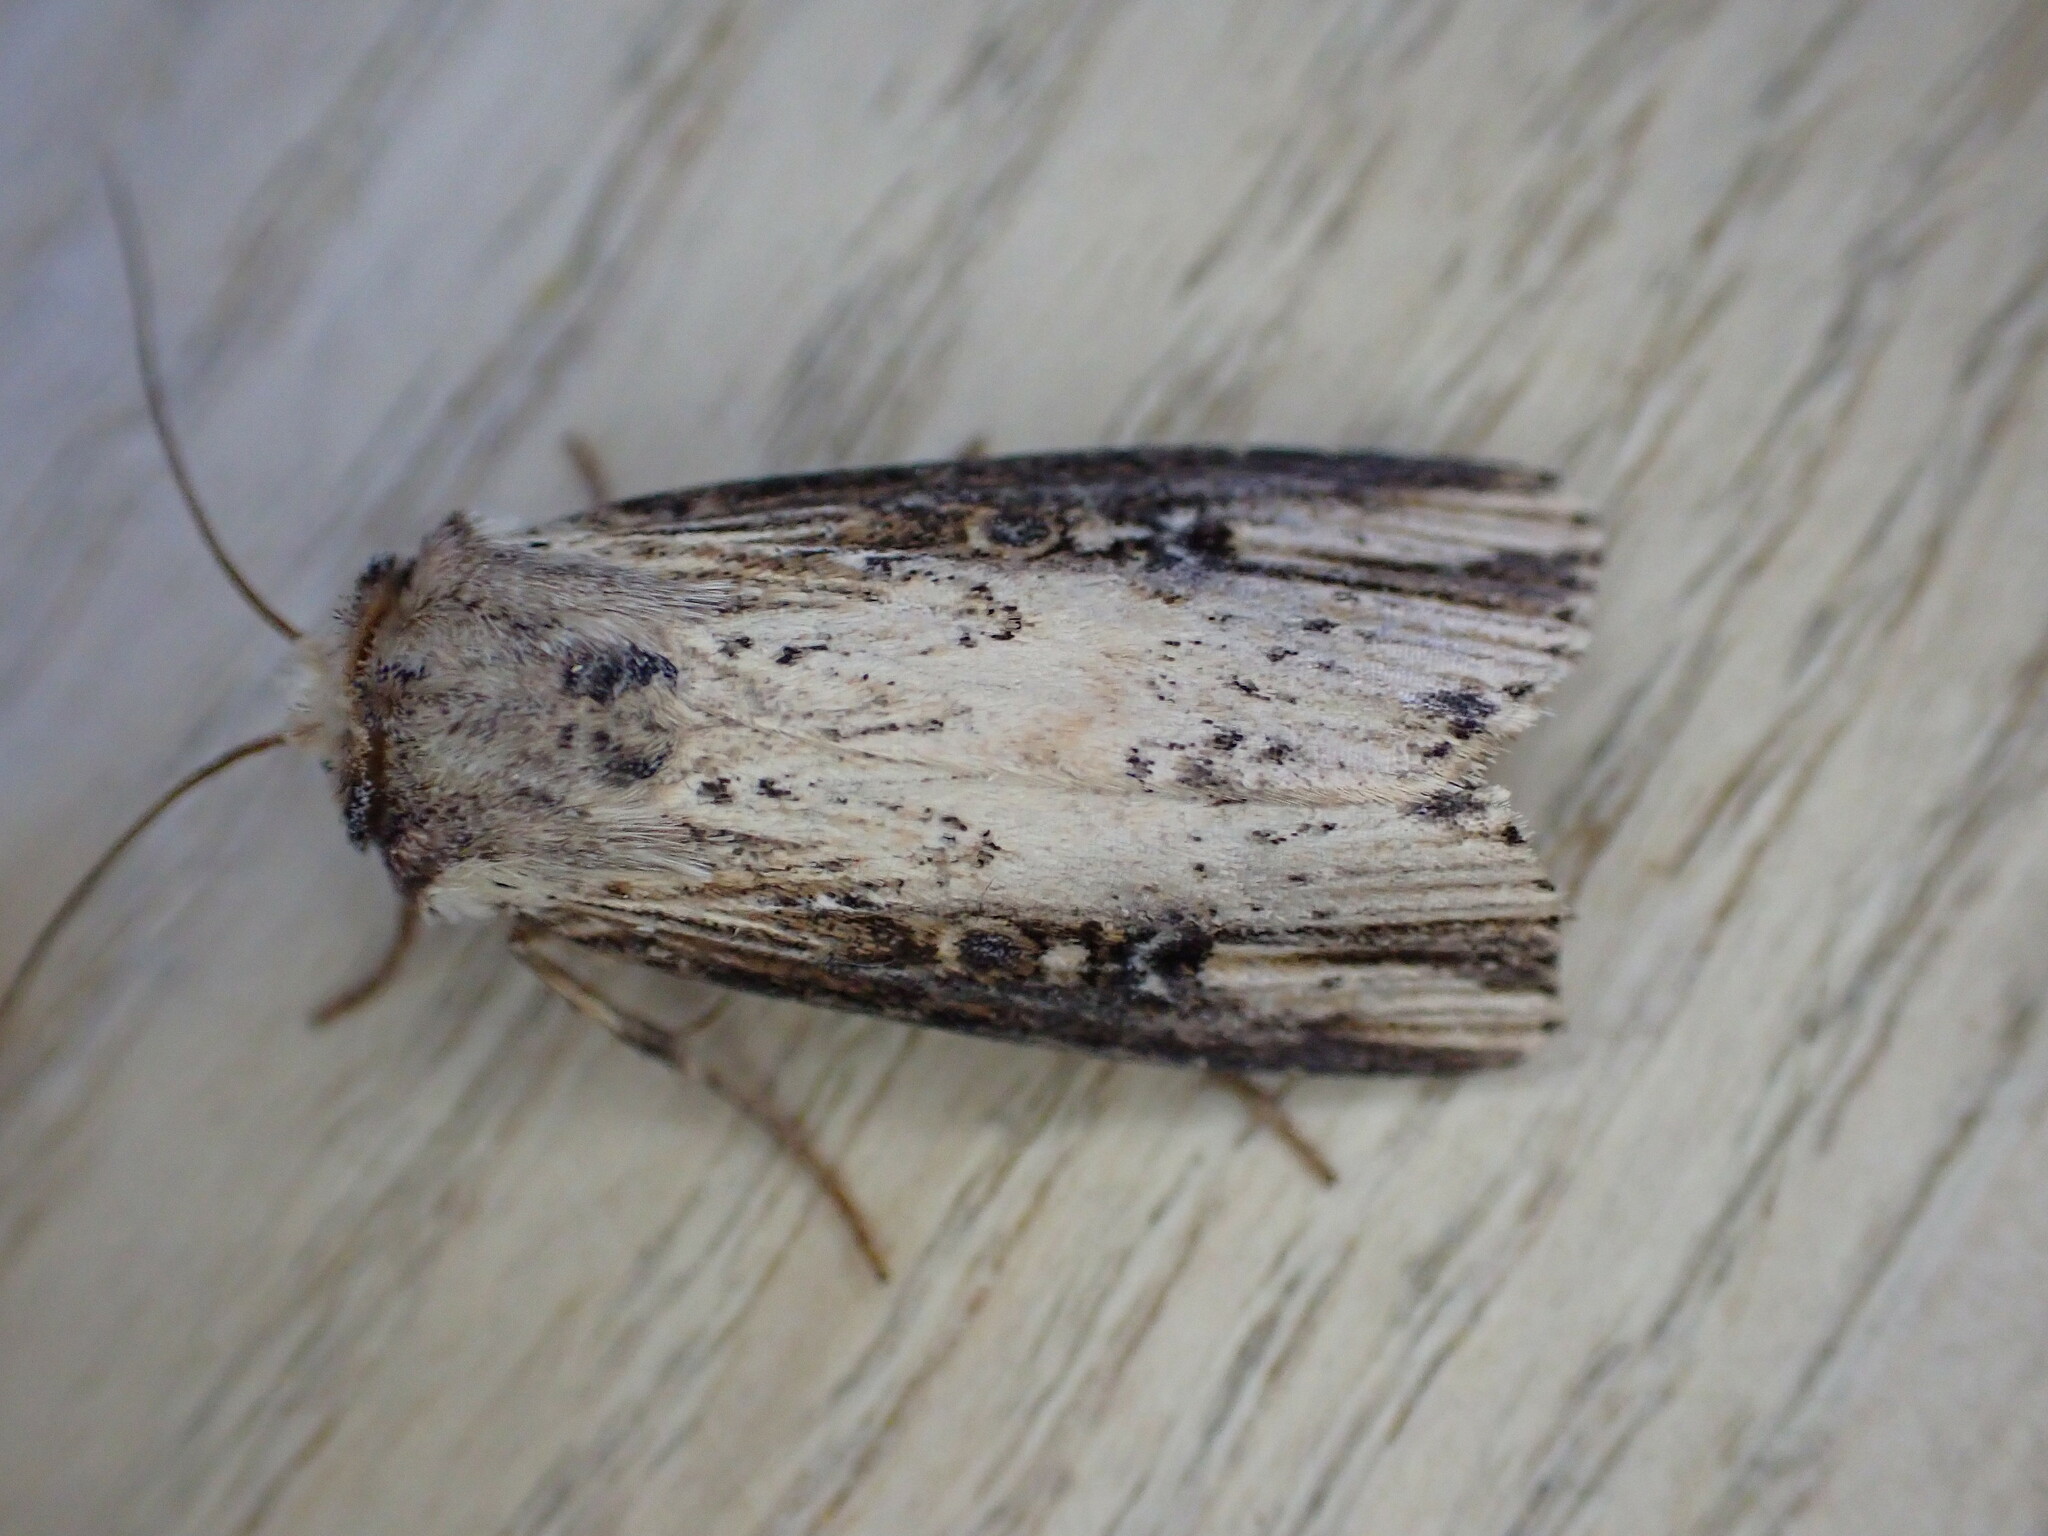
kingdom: Animalia
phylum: Arthropoda
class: Insecta
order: Lepidoptera
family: Noctuidae
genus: Axylia
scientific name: Axylia putris
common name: Flame
